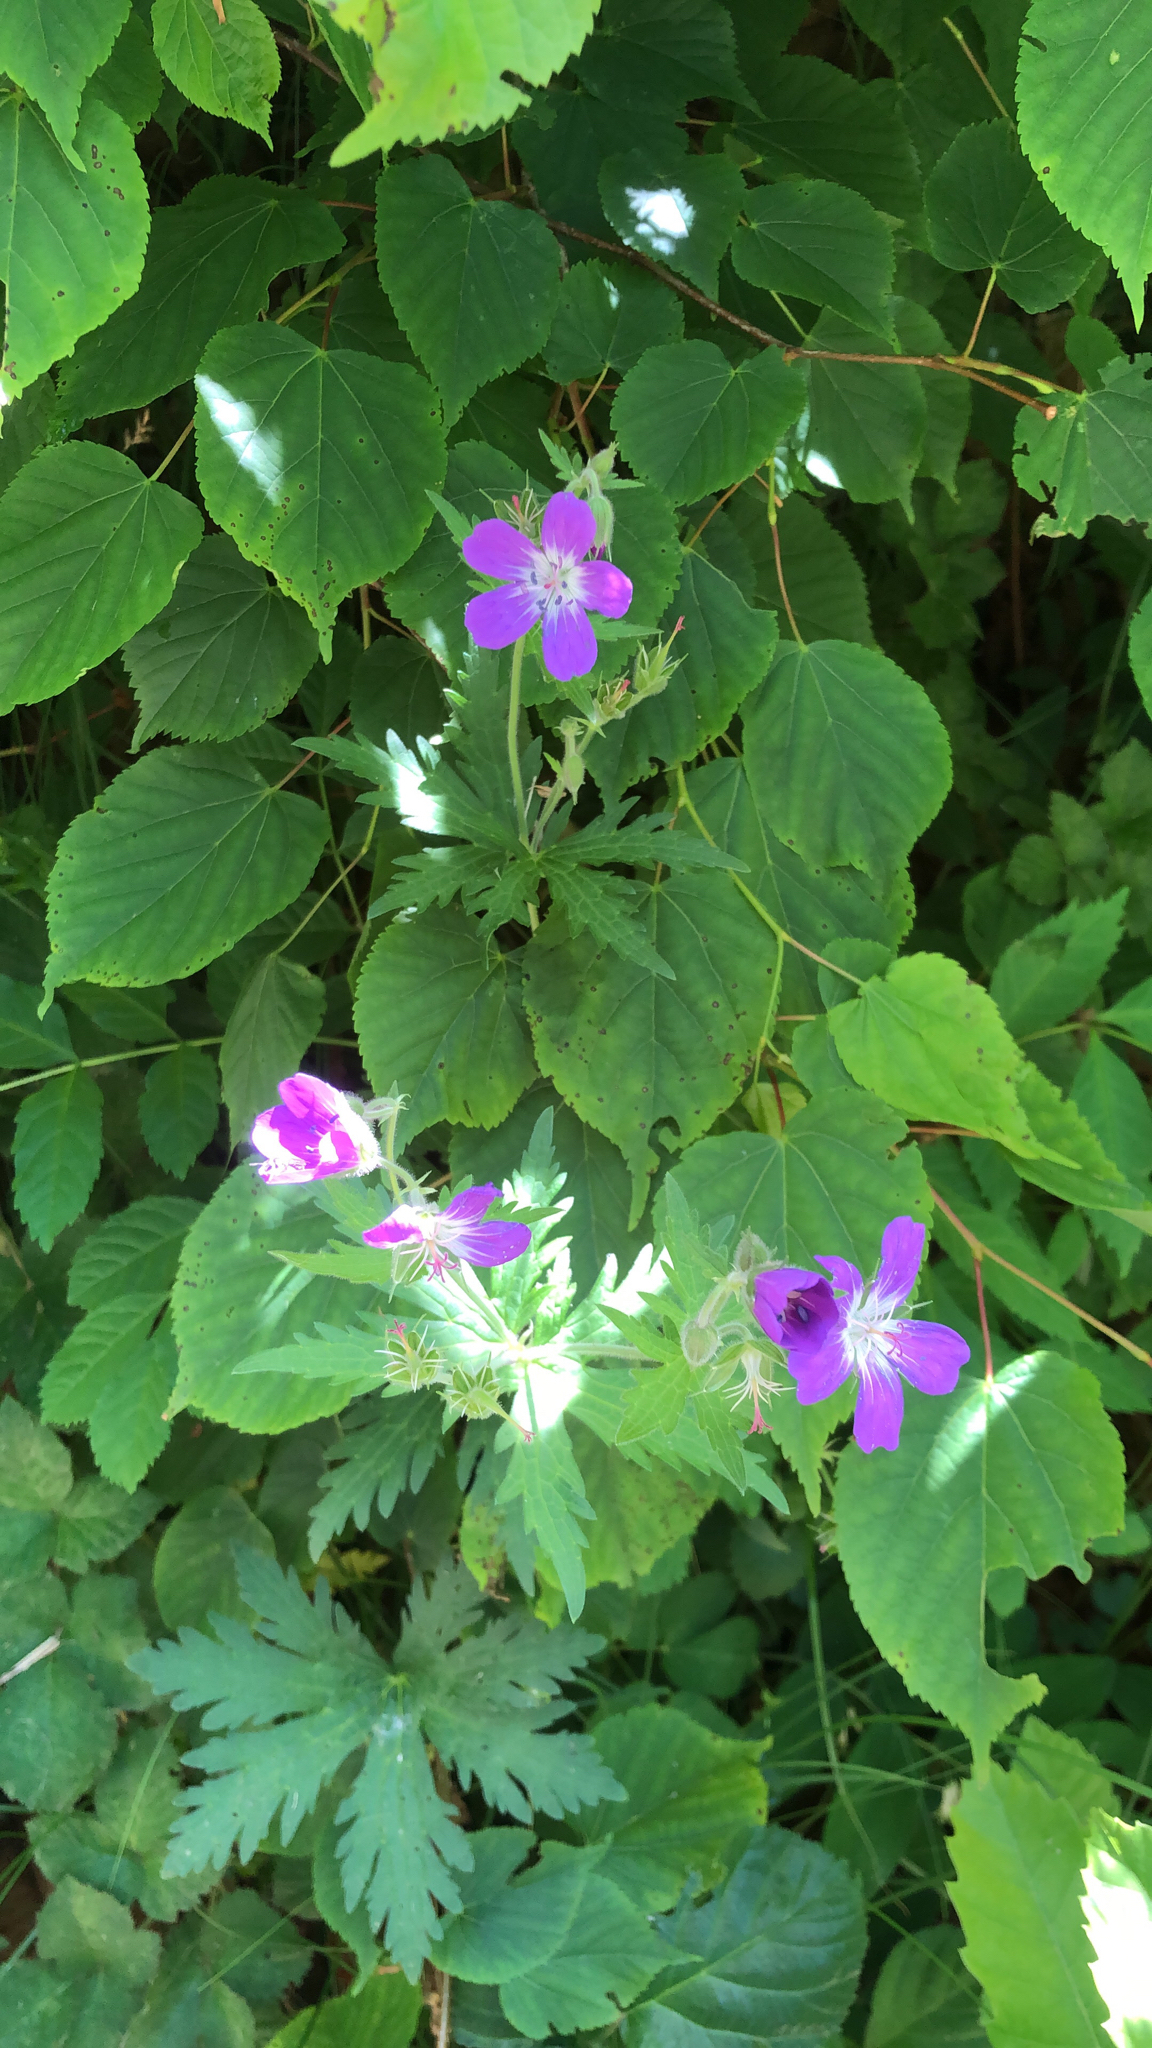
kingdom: Plantae
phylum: Tracheophyta
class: Magnoliopsida
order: Geraniales
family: Geraniaceae
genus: Geranium
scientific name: Geranium sylvaticum
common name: Wood crane's-bill
